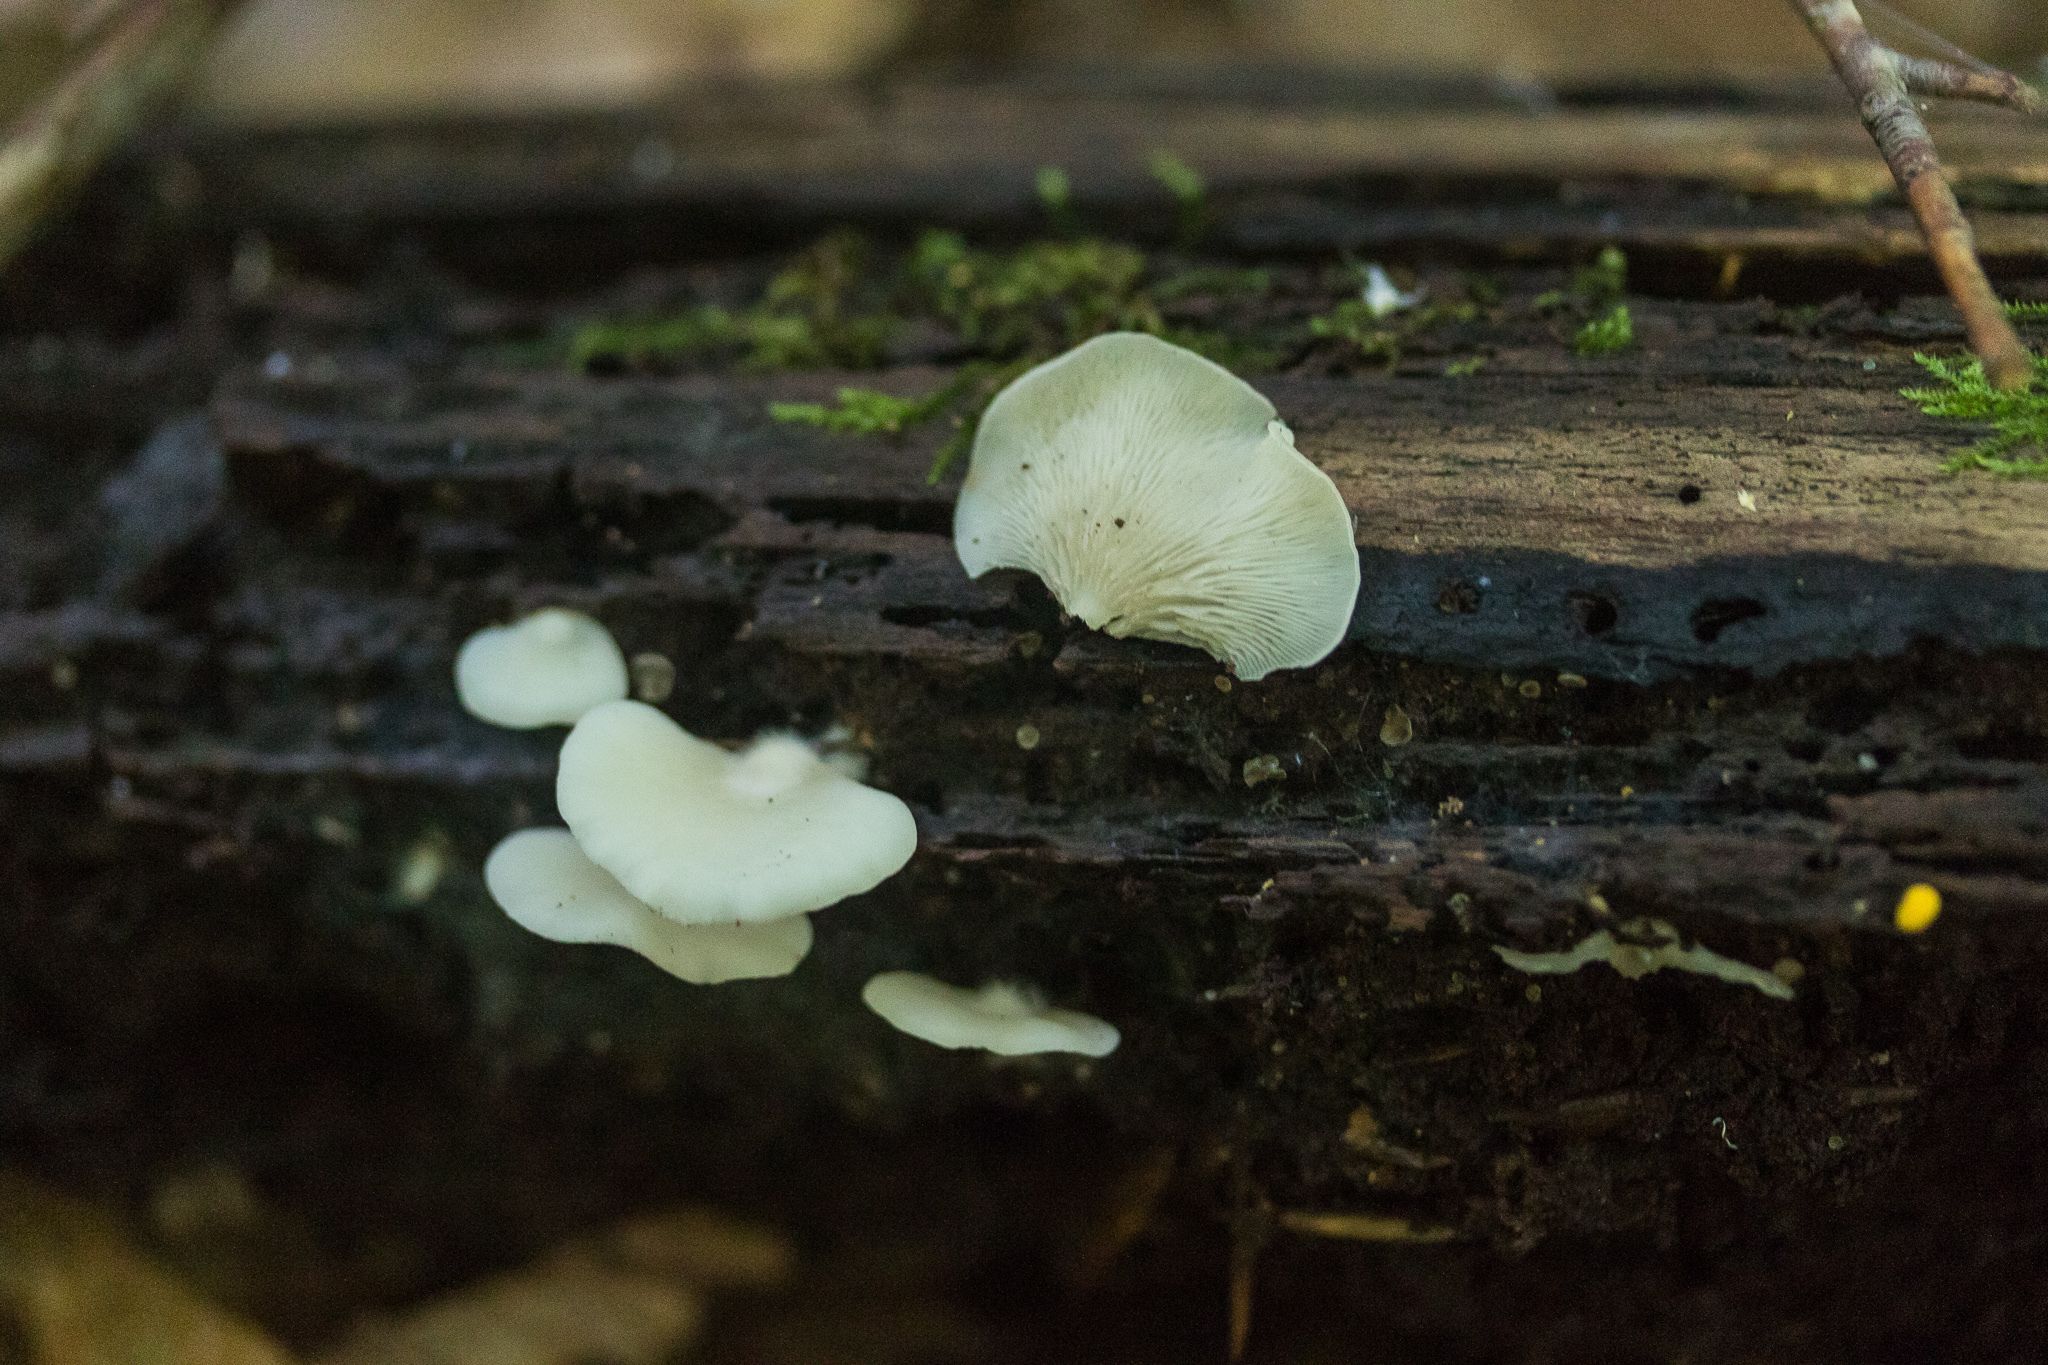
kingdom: Fungi
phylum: Basidiomycota
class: Agaricomycetes
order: Agaricales
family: Crepidotaceae
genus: Crepidotus
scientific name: Crepidotus applanatus
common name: Flat crep
